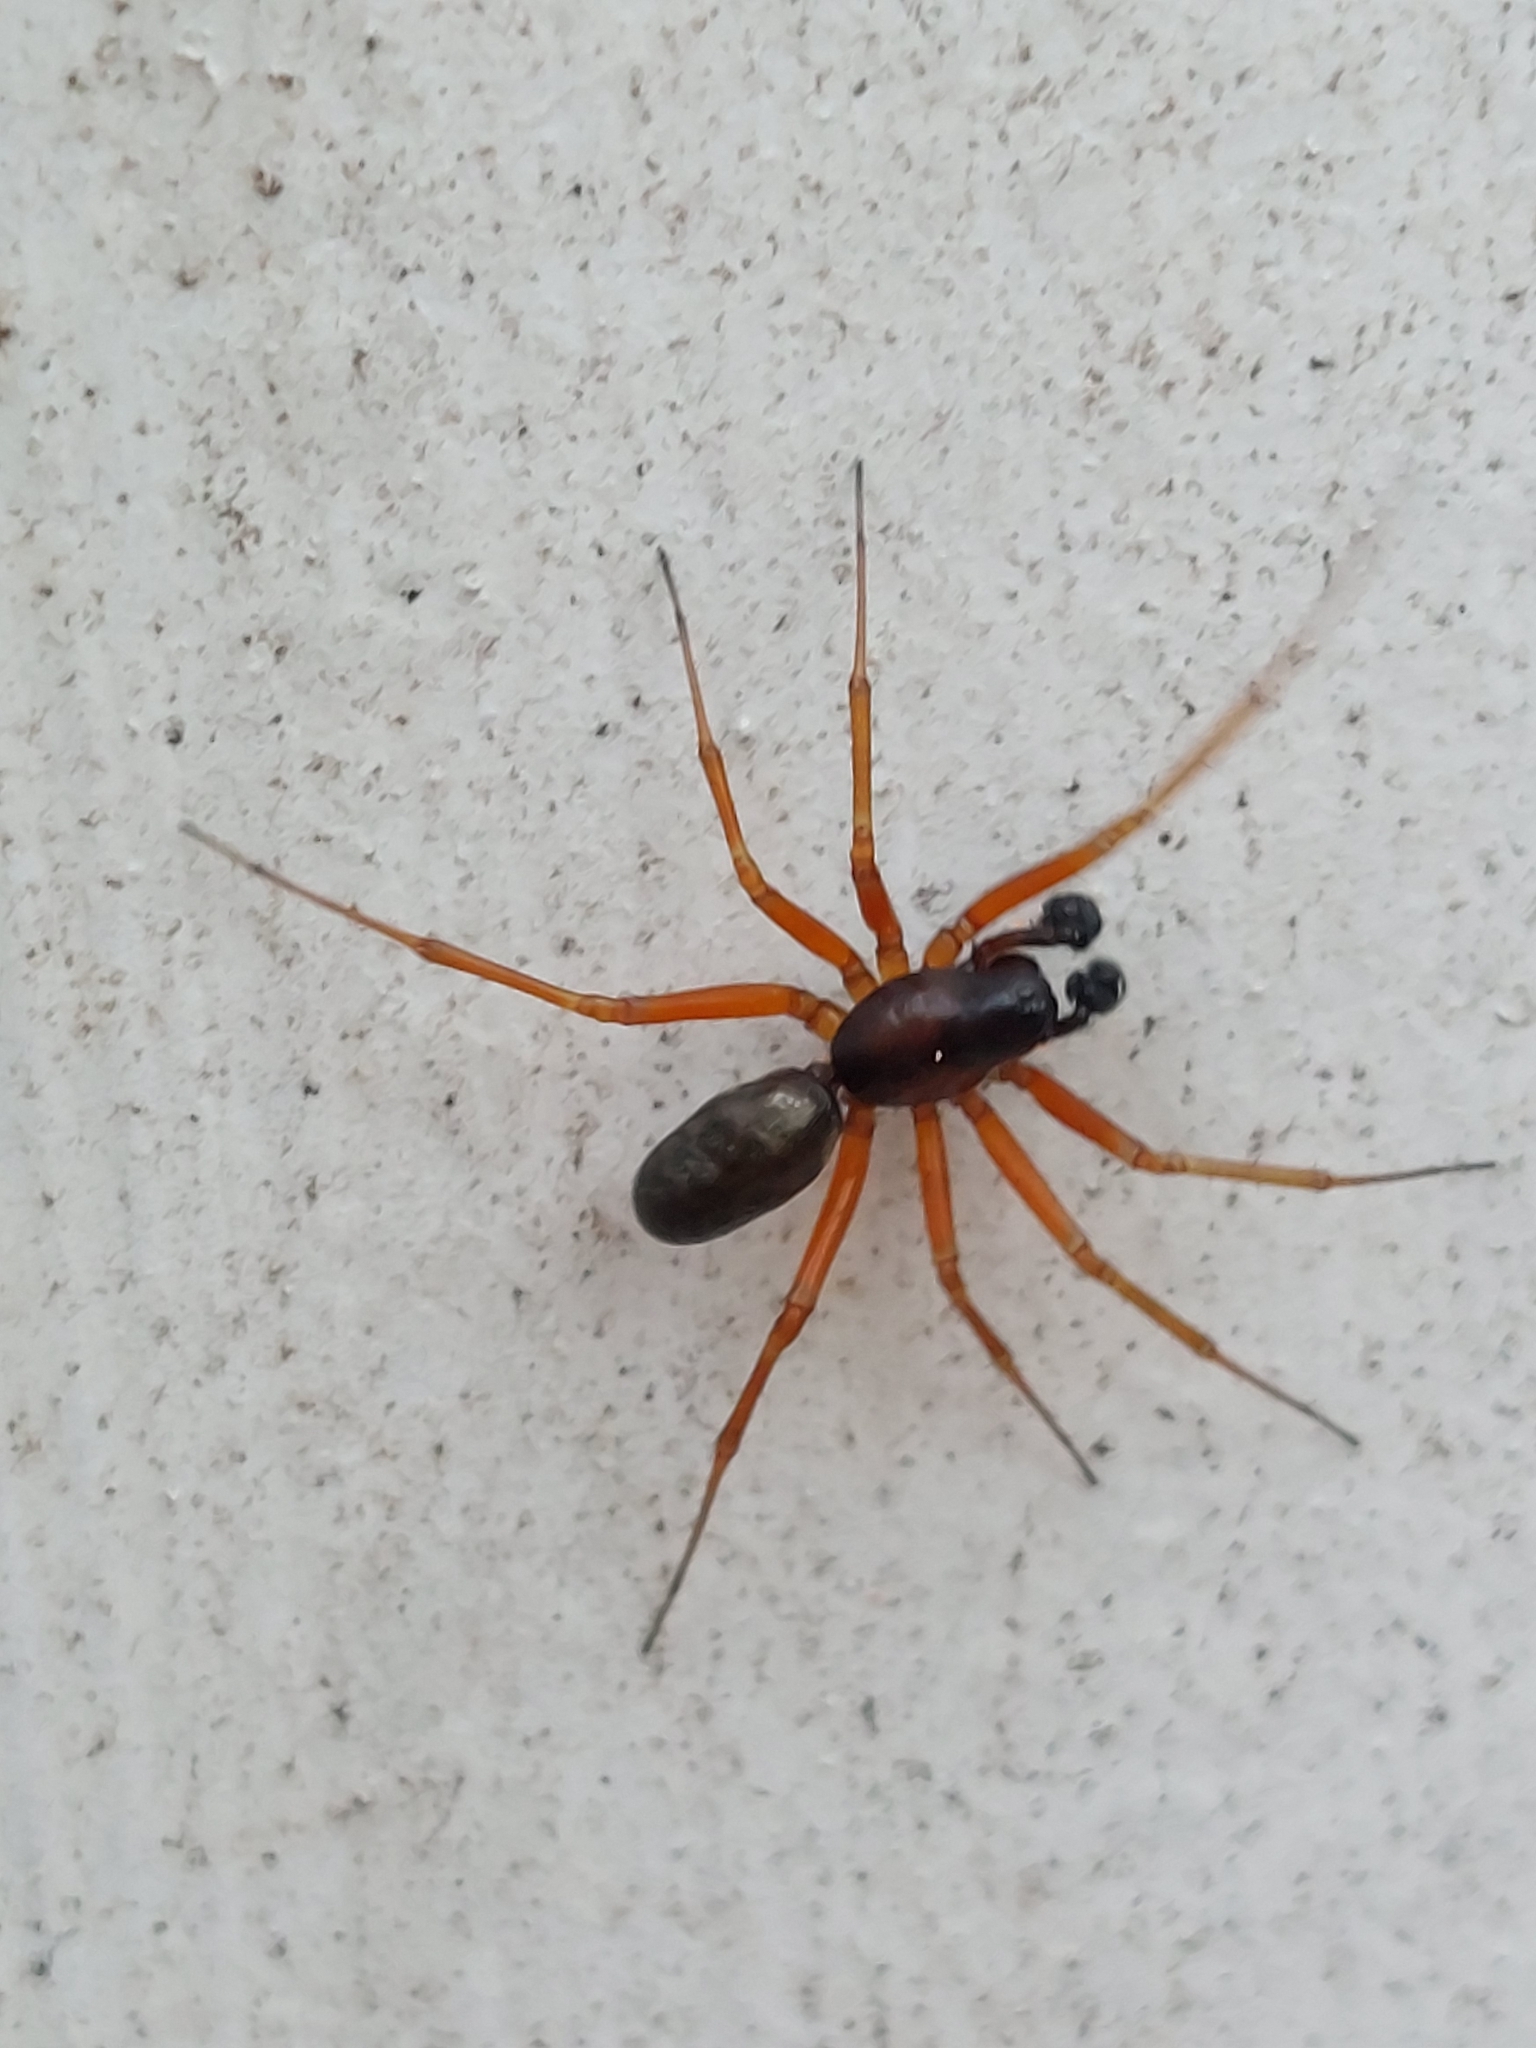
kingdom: Animalia
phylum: Arthropoda
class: Arachnida
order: Araneae
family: Linyphiidae
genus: Neriene
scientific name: Neriene clathrata
